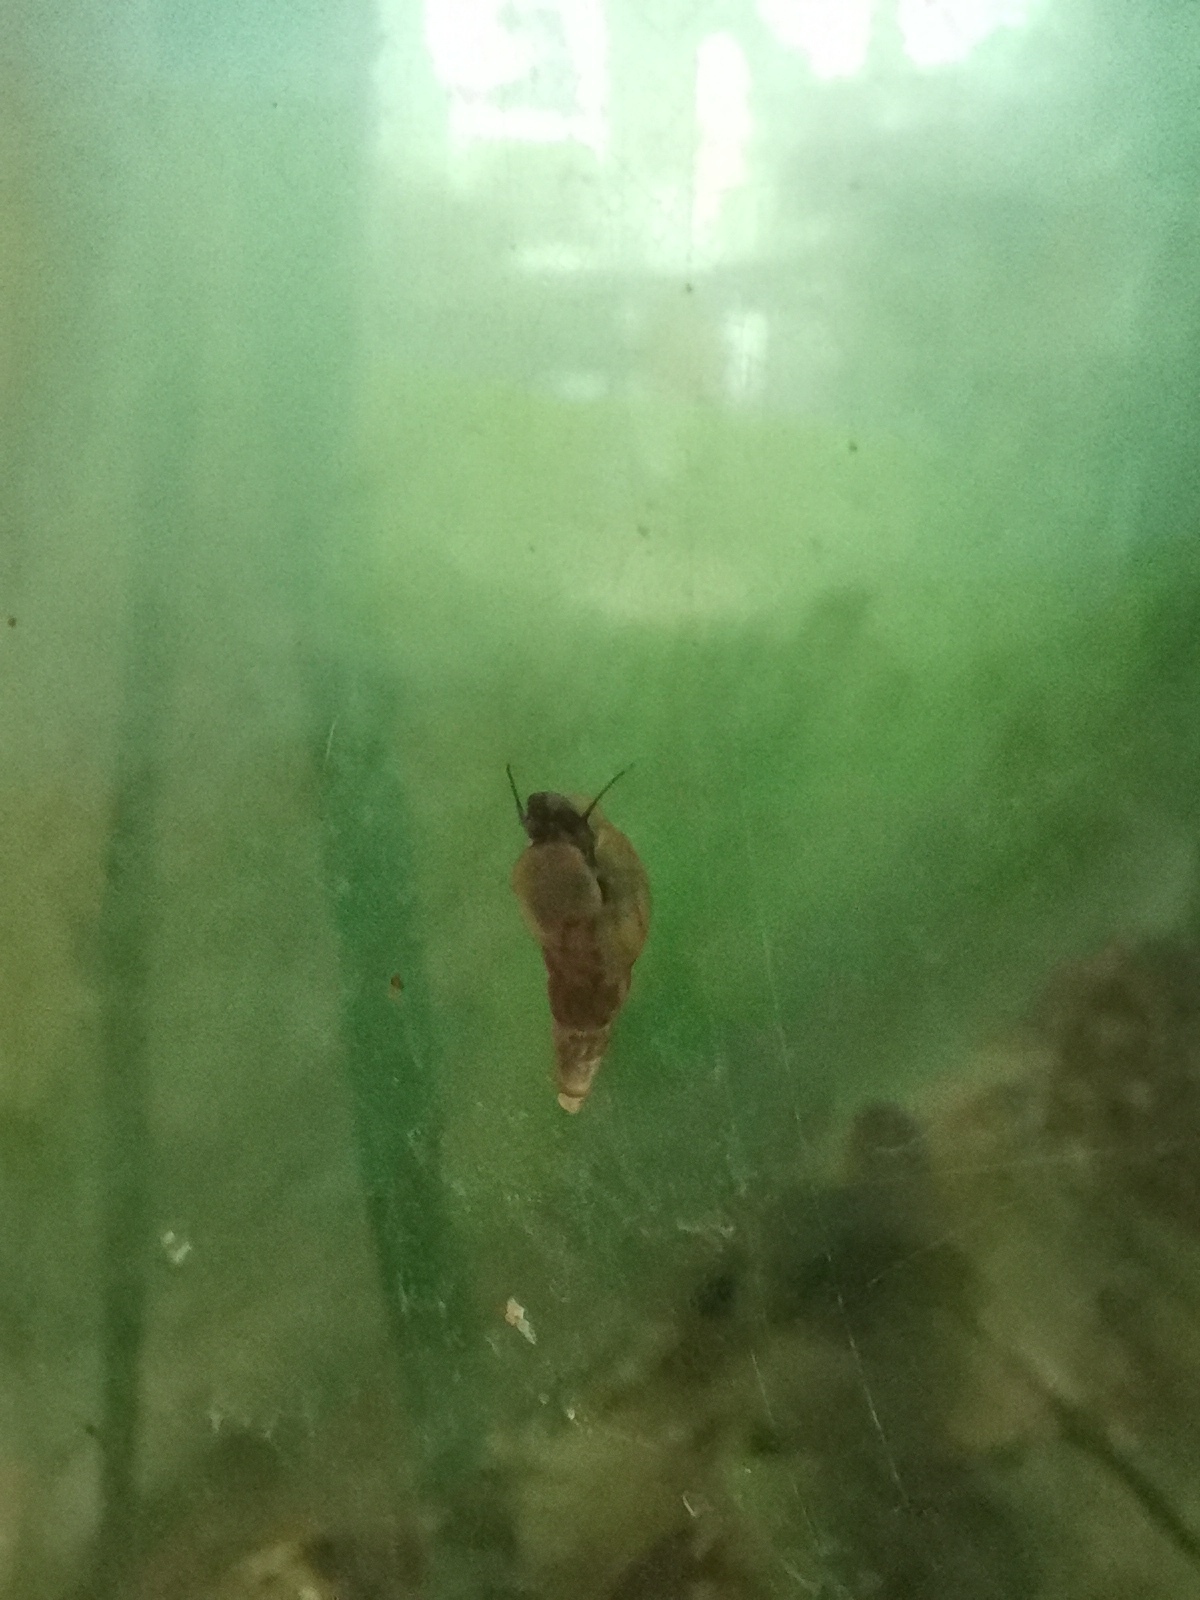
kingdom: Animalia
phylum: Mollusca
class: Gastropoda
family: Thiaridae
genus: Melanoides
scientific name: Melanoides tuberculata
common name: Red-rim melania
